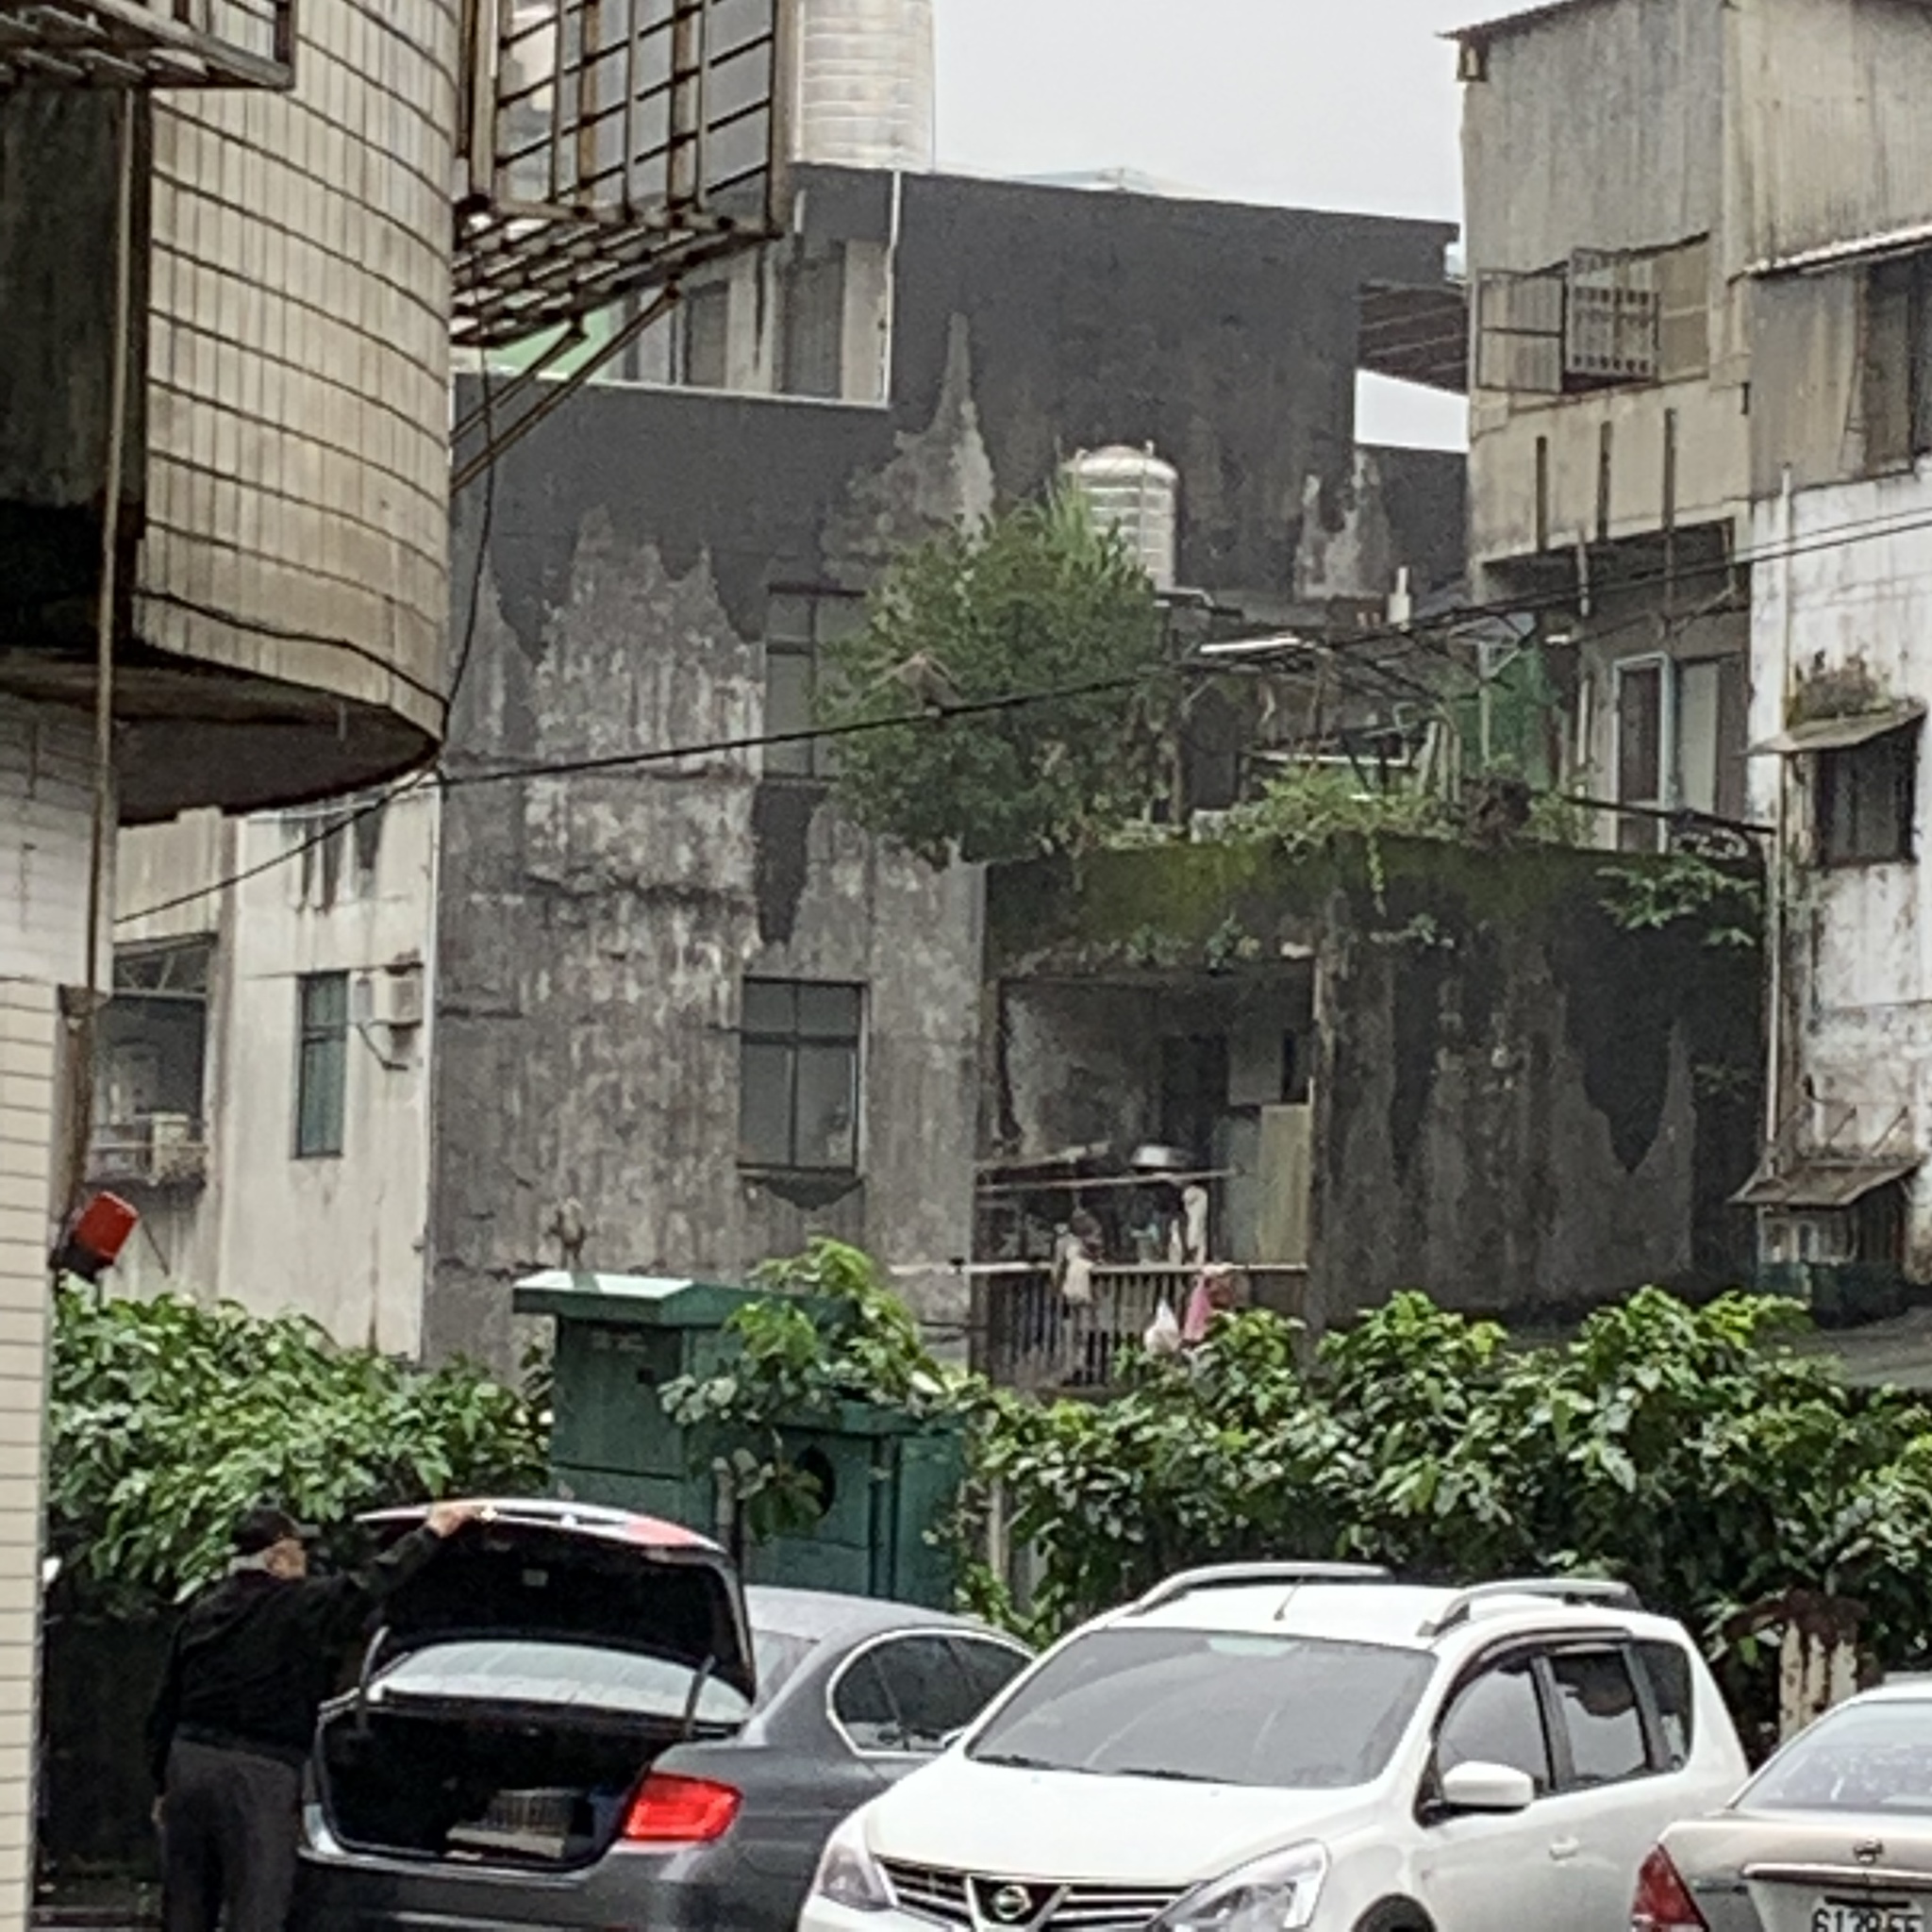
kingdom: Animalia
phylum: Chordata
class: Aves
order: Pelecaniformes
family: Ardeidae
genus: Nycticorax
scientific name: Nycticorax nycticorax
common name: Black-crowned night heron
